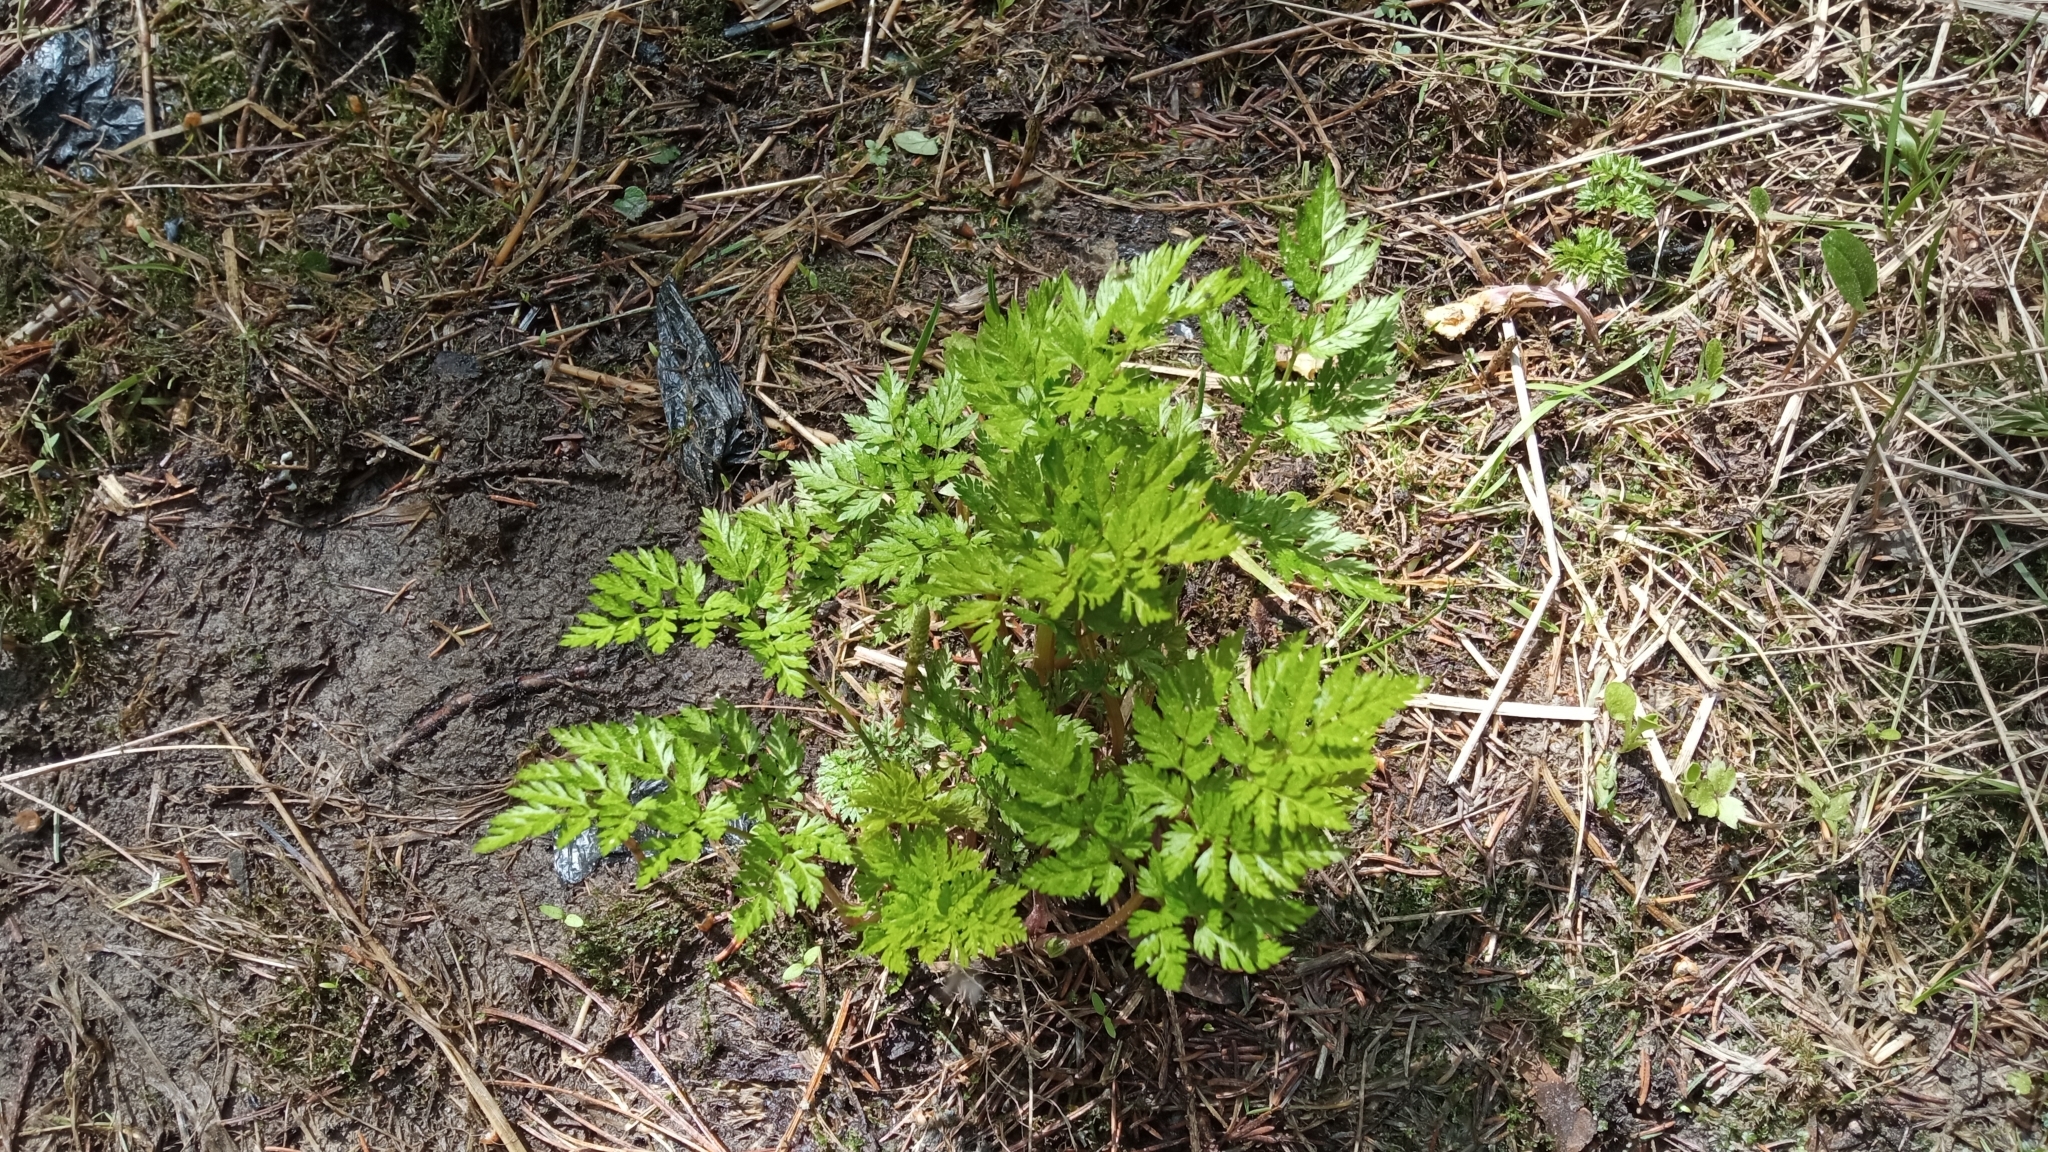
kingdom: Plantae
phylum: Tracheophyta
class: Magnoliopsida
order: Apiales
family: Apiaceae
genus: Anthriscus
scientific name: Anthriscus sylvestris
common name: Cow parsley
